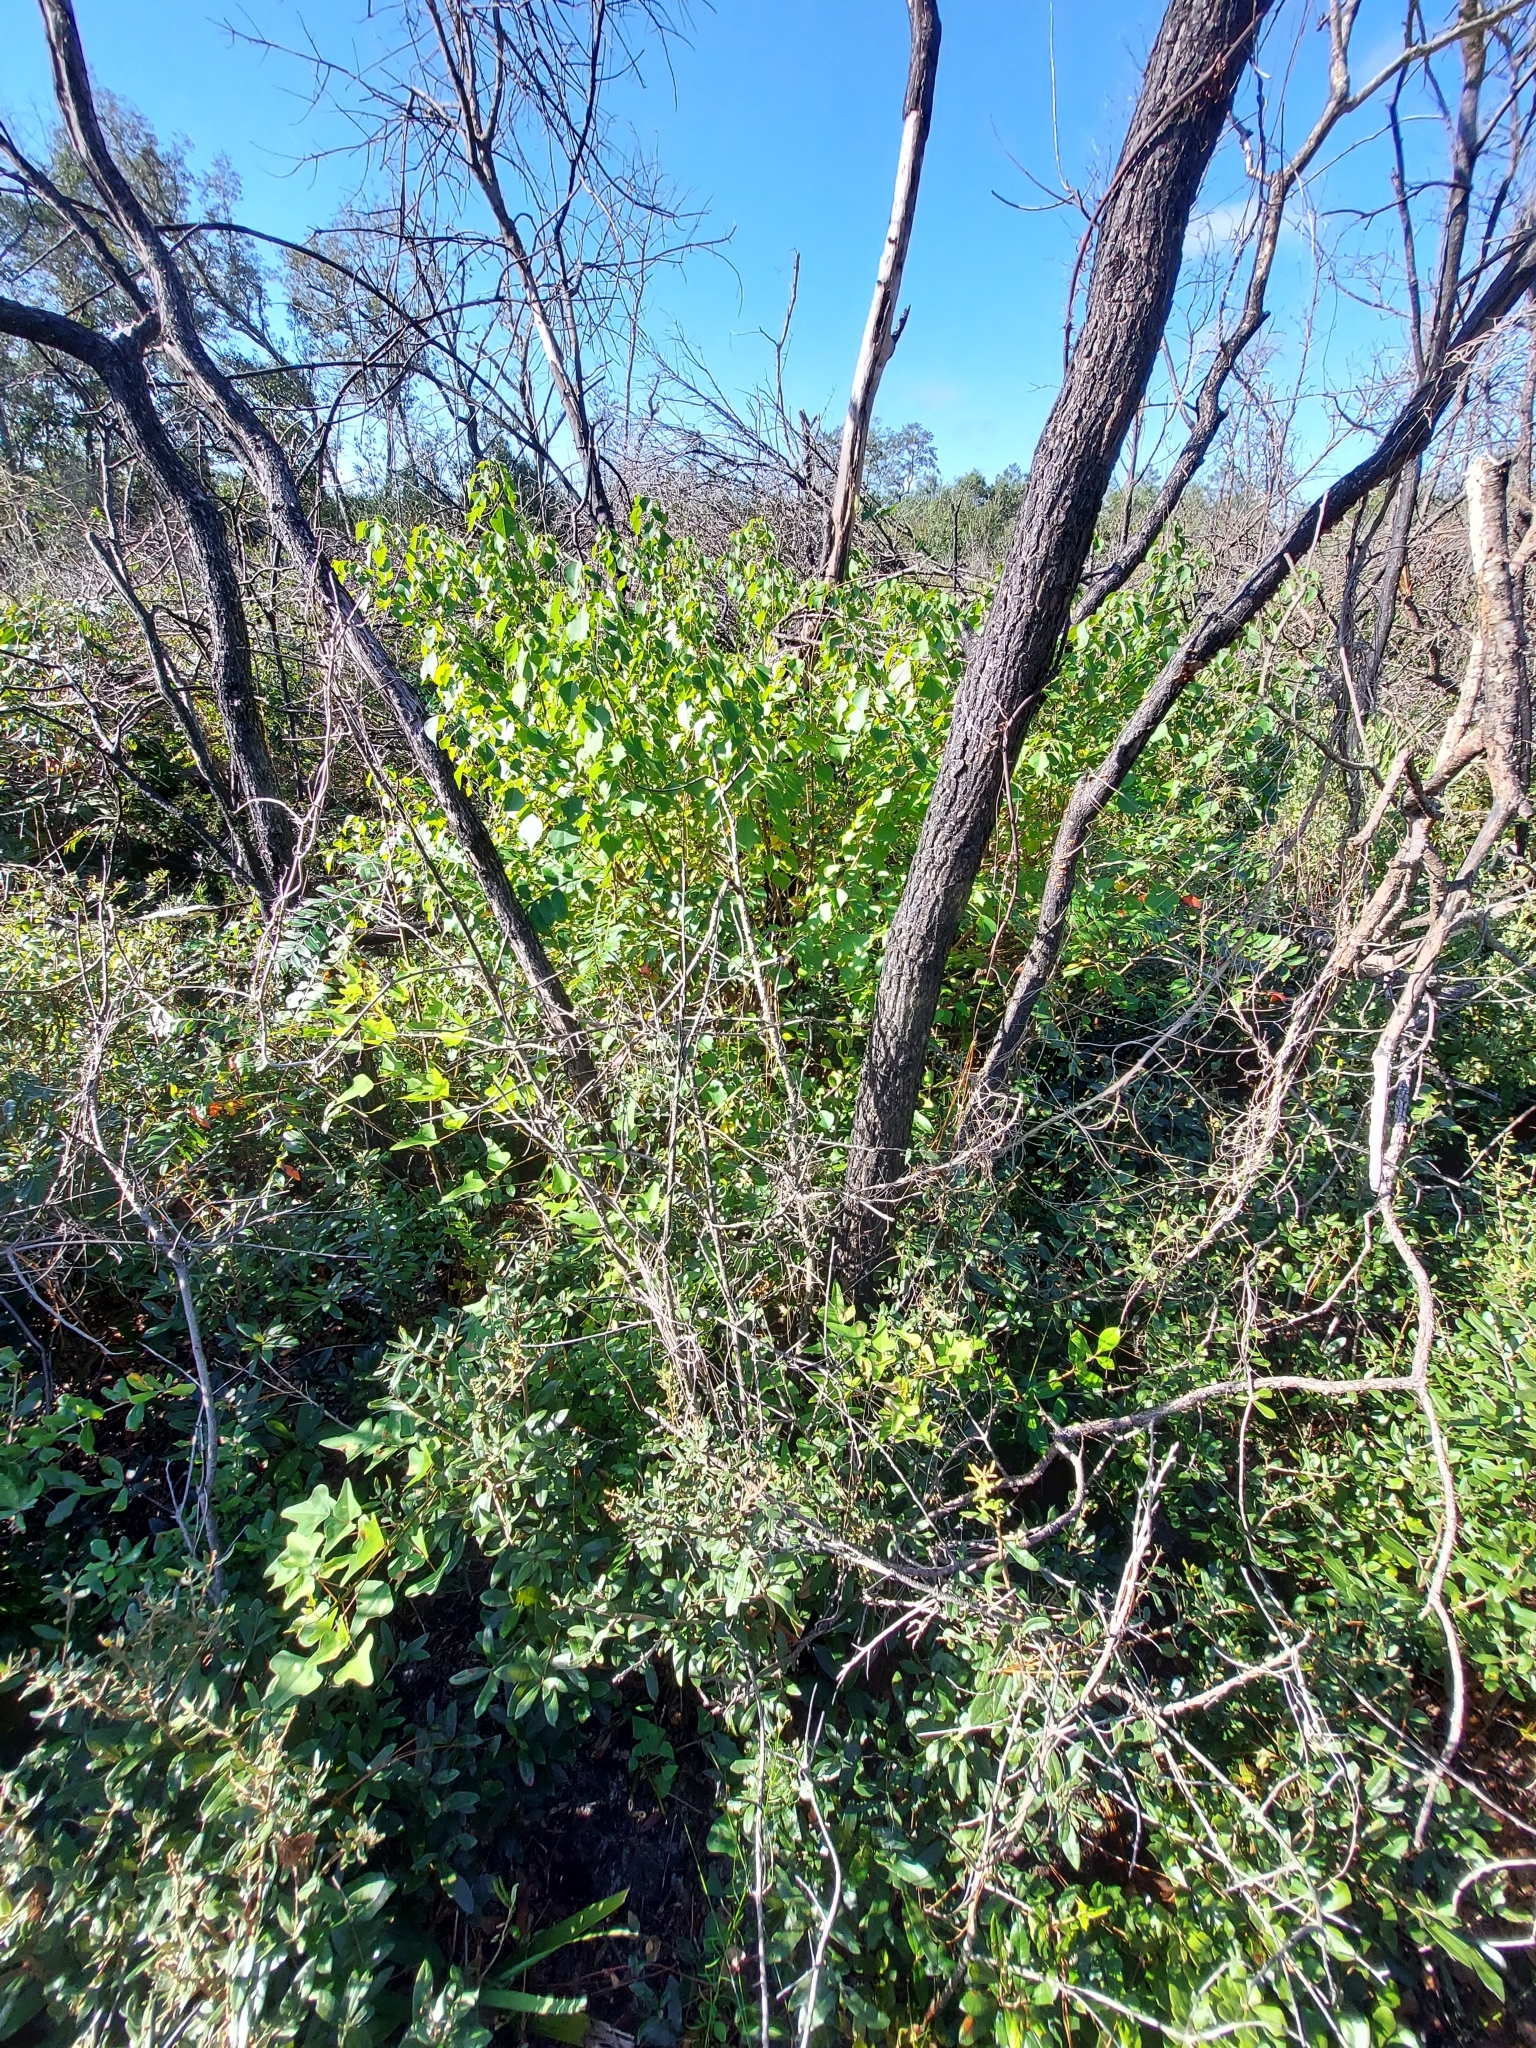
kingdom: Plantae
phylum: Tracheophyta
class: Magnoliopsida
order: Malpighiales
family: Euphorbiaceae
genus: Triadica
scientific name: Triadica sebifera
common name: Chinese tallow
